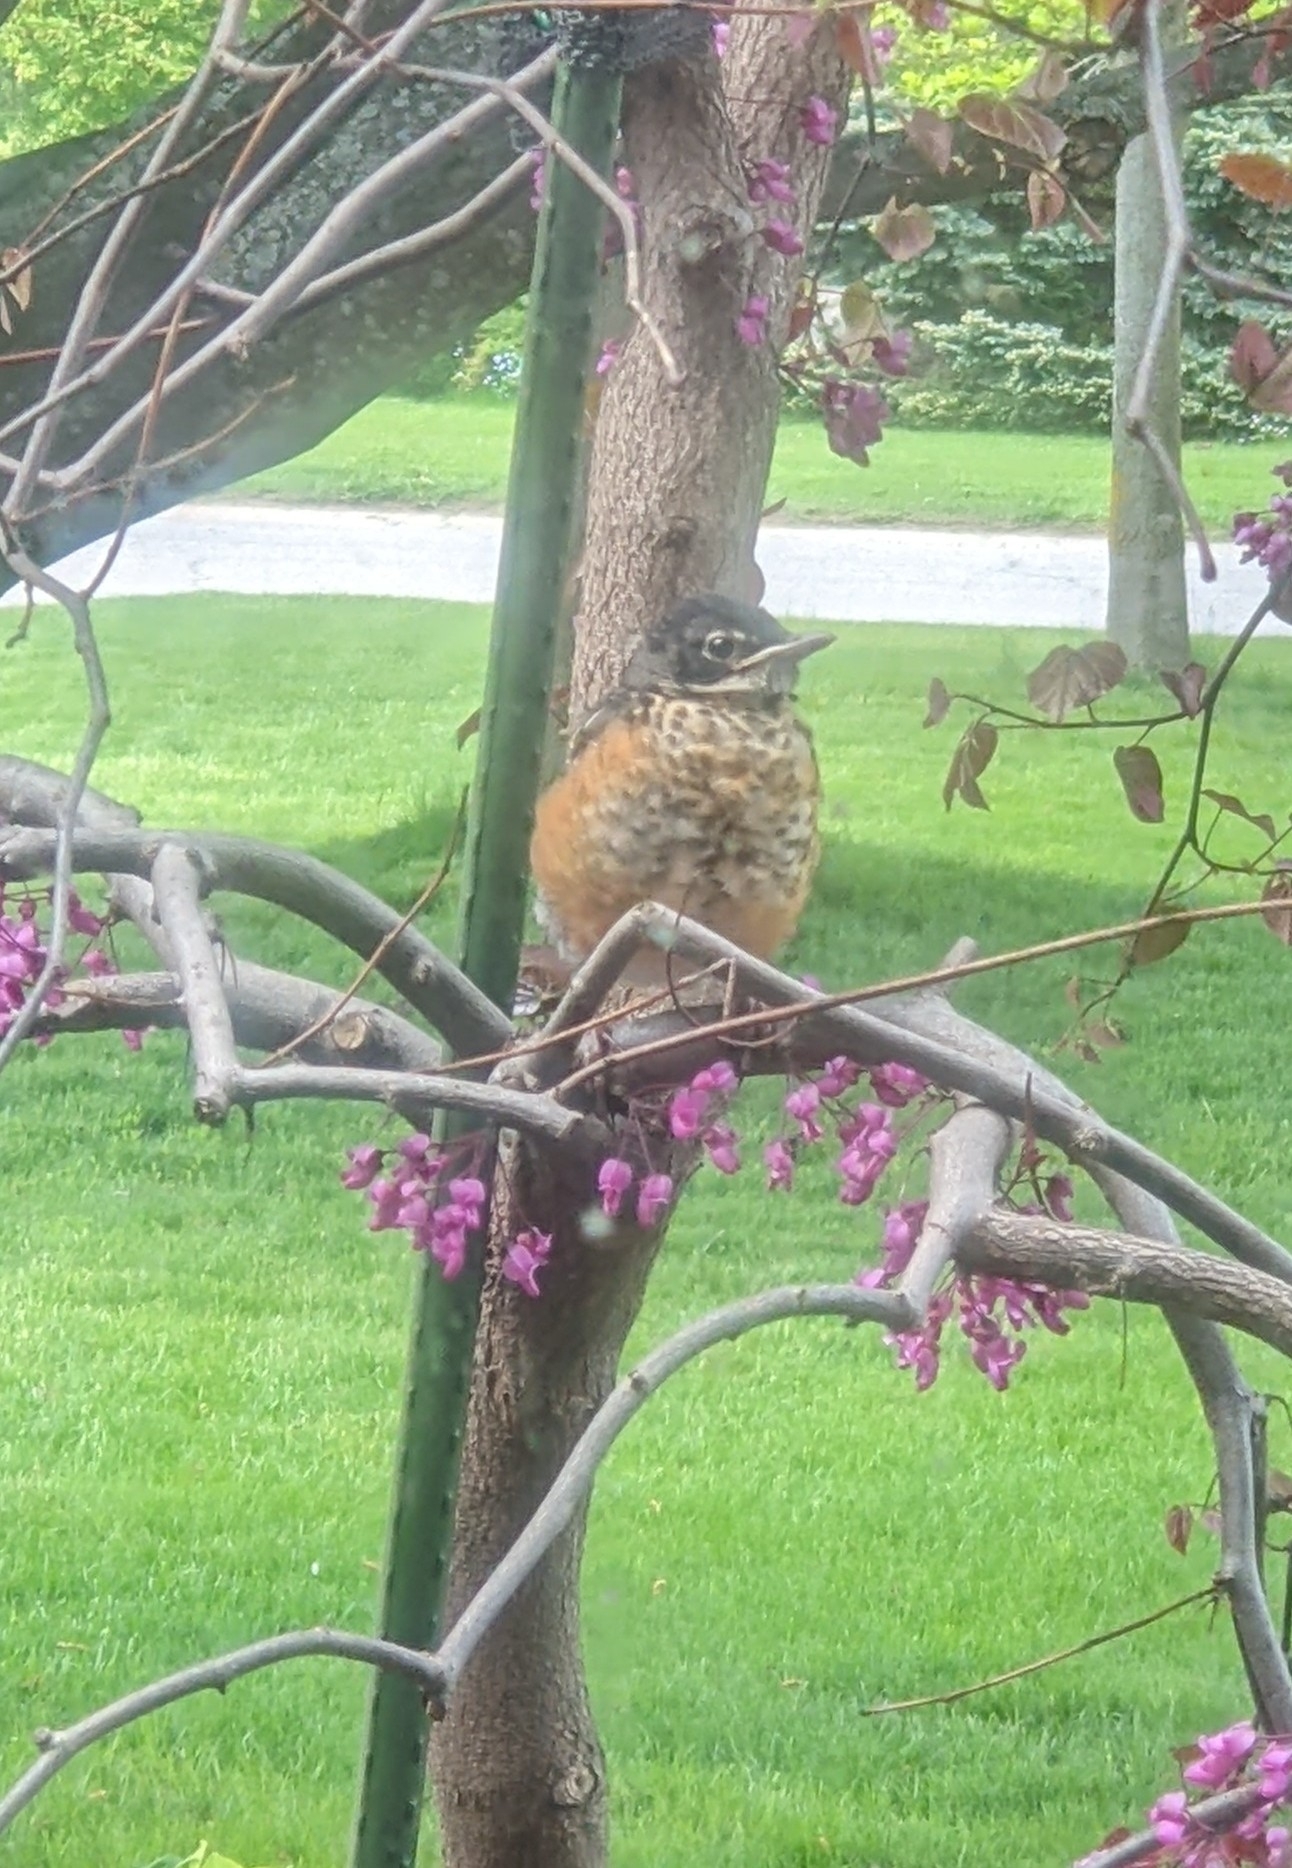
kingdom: Animalia
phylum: Chordata
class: Aves
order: Passeriformes
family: Turdidae
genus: Turdus
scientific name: Turdus migratorius
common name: American robin
